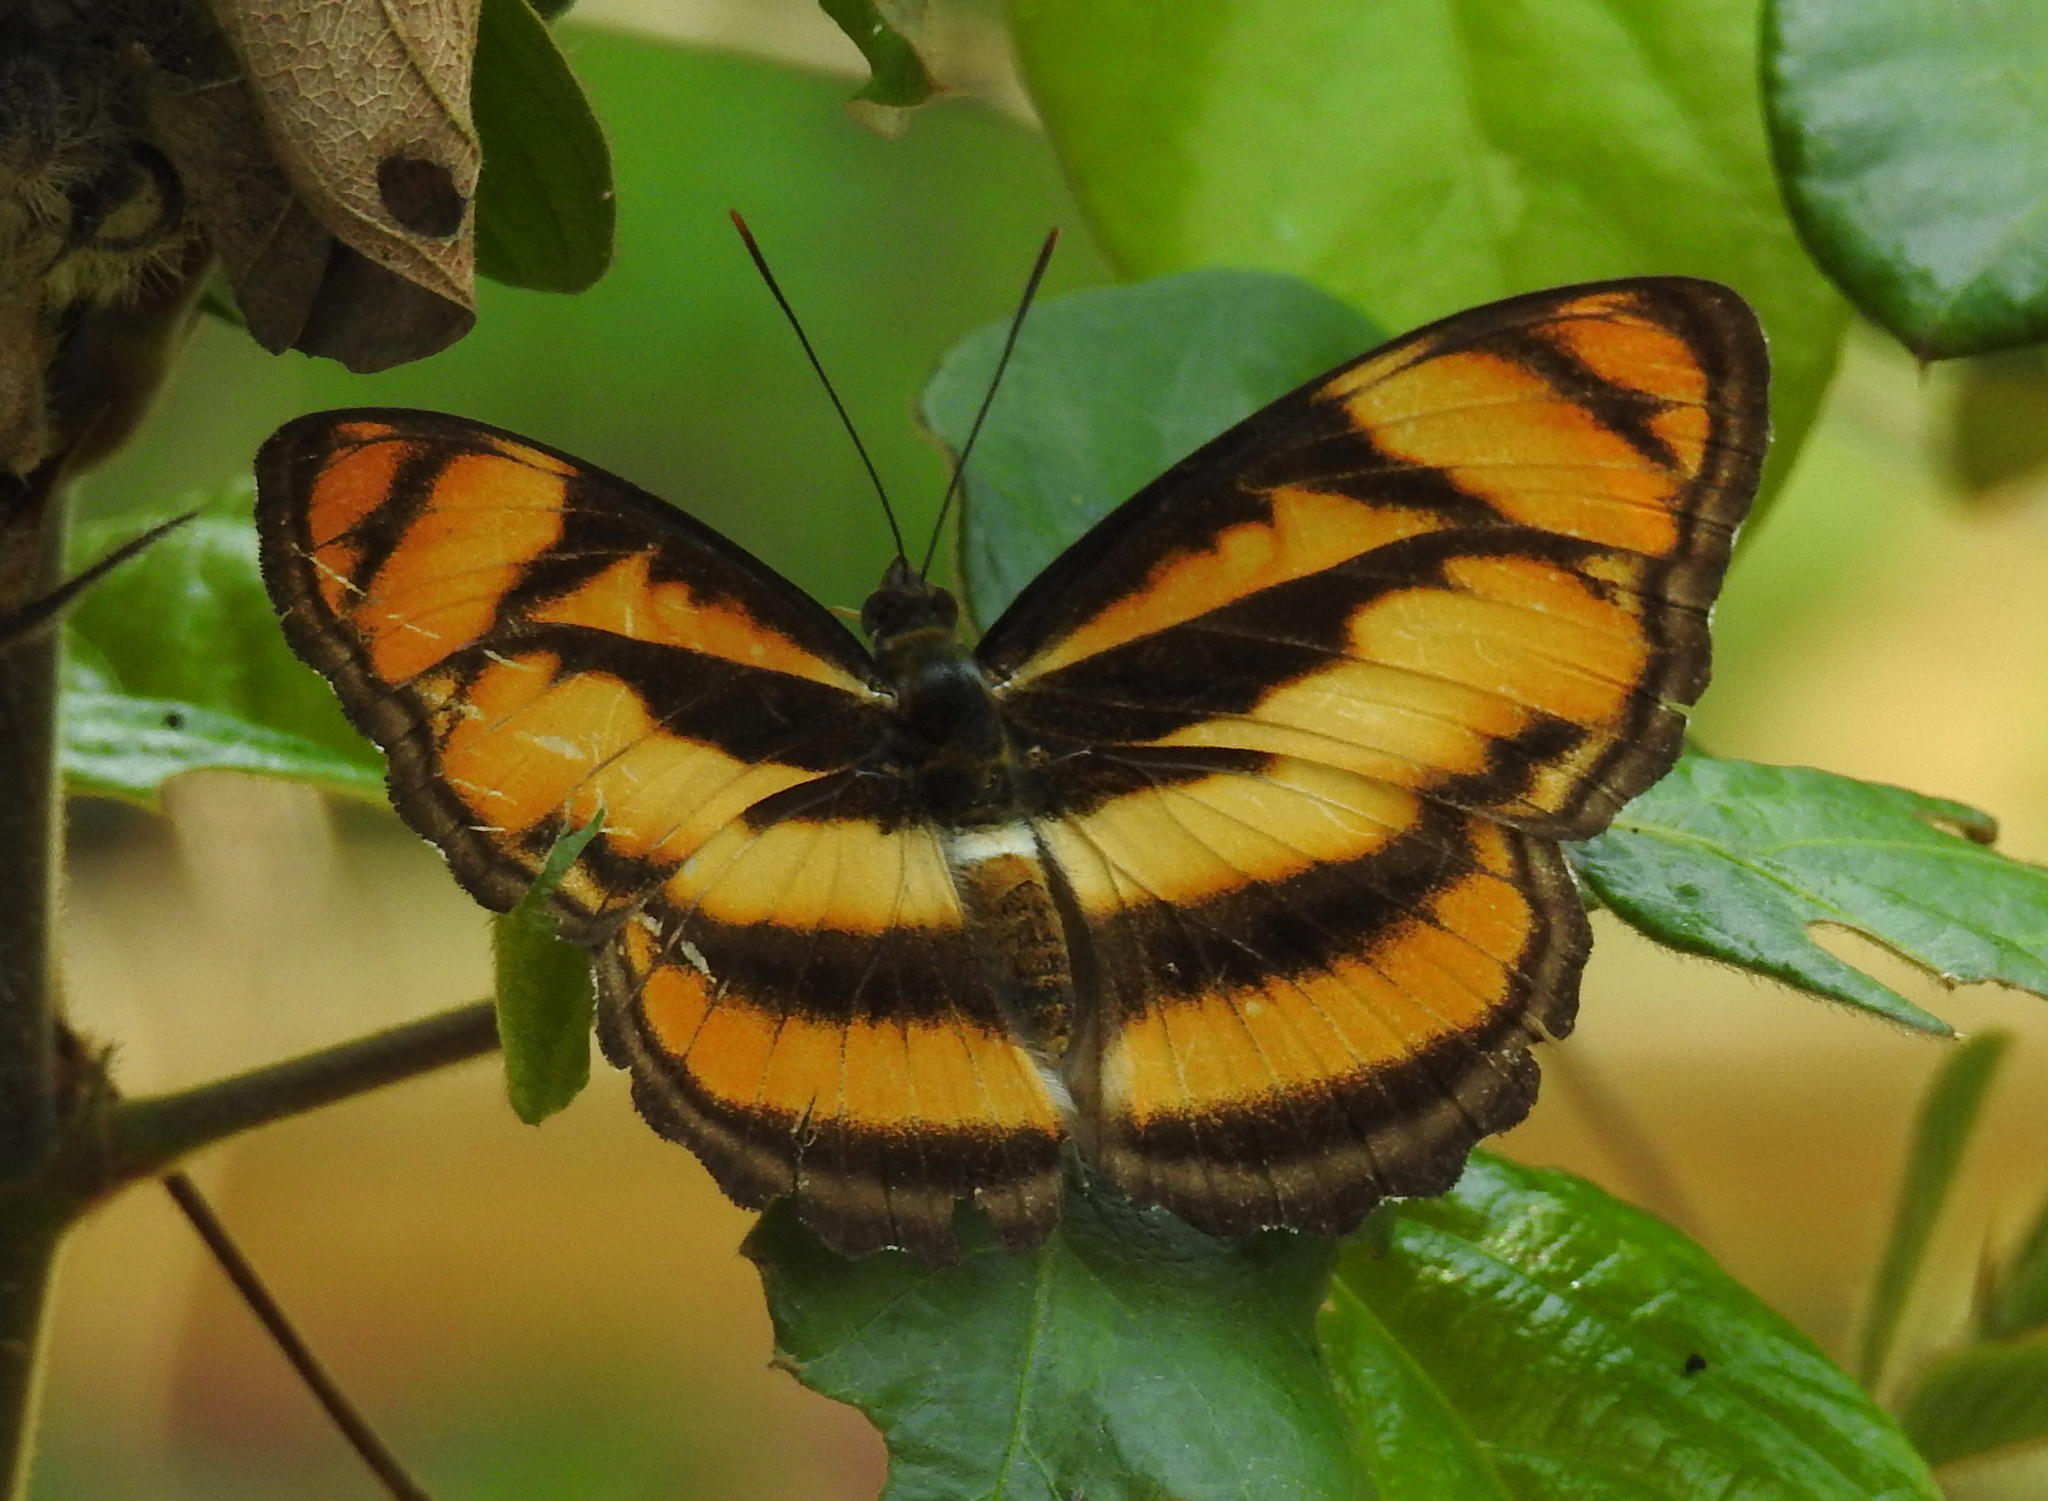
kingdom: Animalia
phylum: Arthropoda
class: Insecta
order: Lepidoptera
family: Nymphalidae
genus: Parathyma
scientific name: Parathyma nefte
